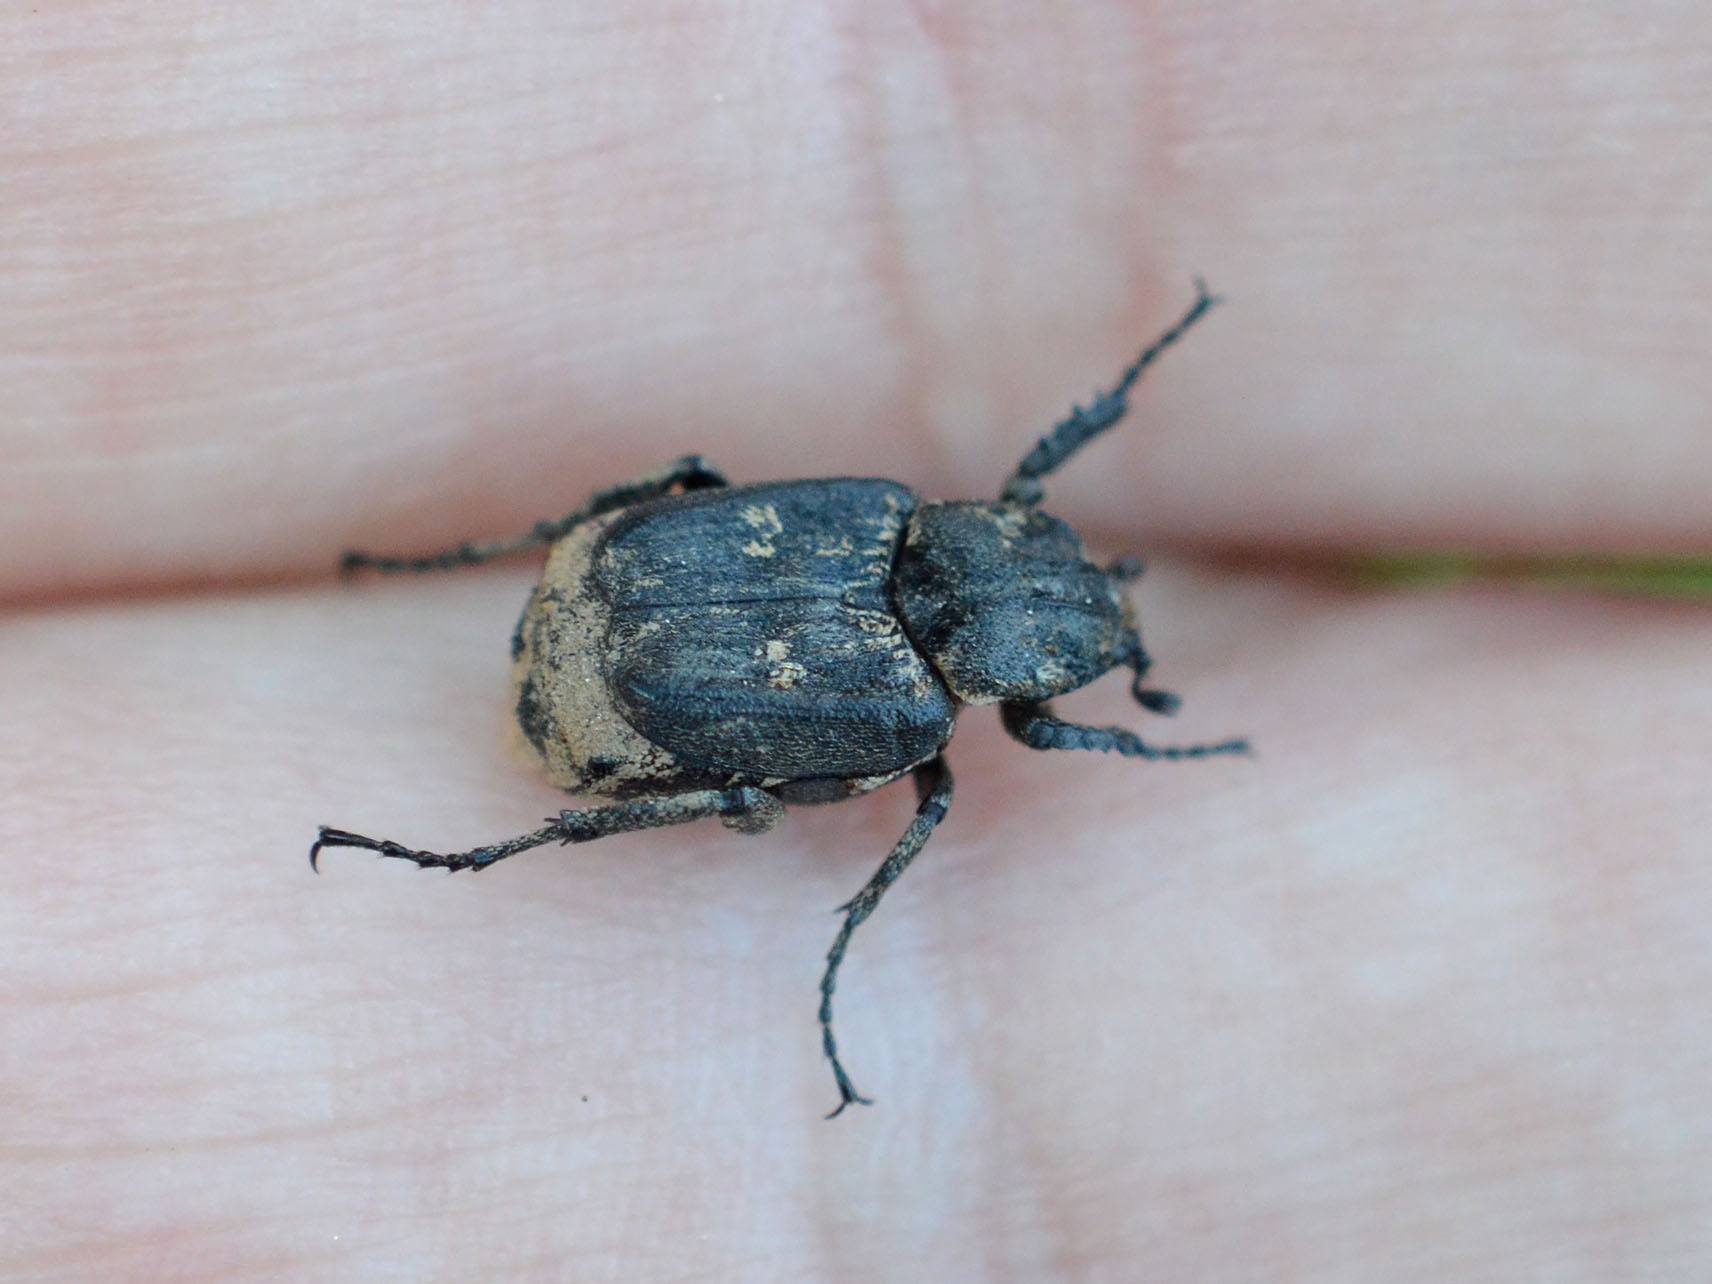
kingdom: Animalia
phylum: Arthropoda
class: Insecta
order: Coleoptera
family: Scarabaeidae
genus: Valgus
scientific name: Valgus hemipterus
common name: Bug flower chafer
